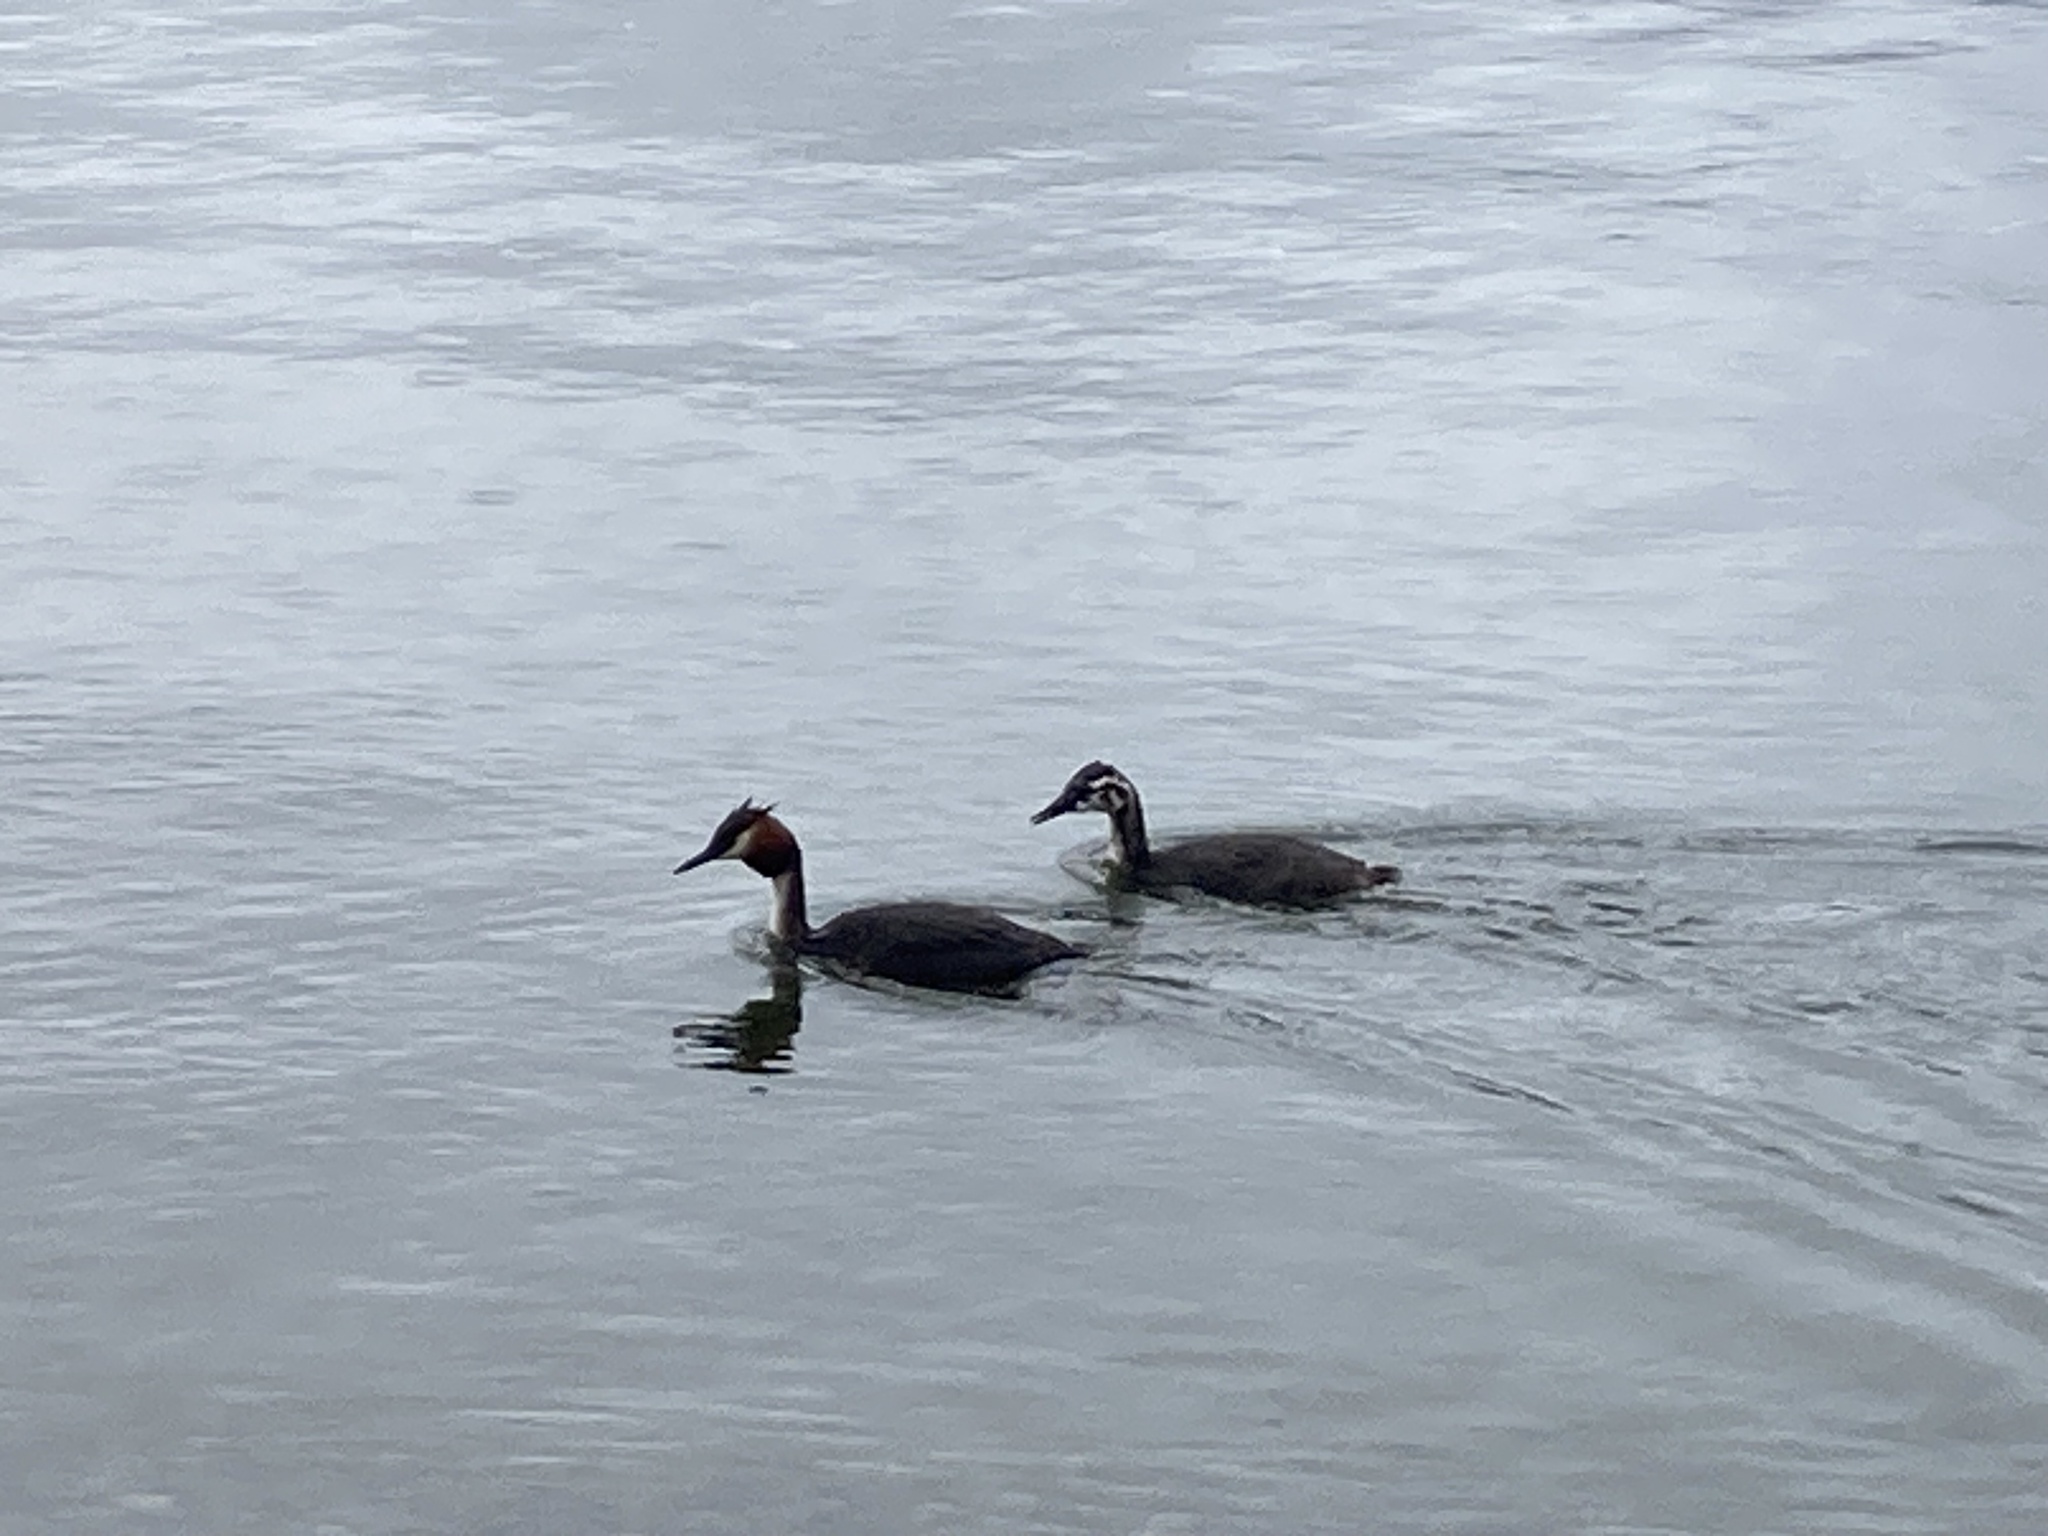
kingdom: Animalia
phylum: Chordata
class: Aves
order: Podicipediformes
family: Podicipedidae
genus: Podiceps
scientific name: Podiceps cristatus
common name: Great crested grebe
